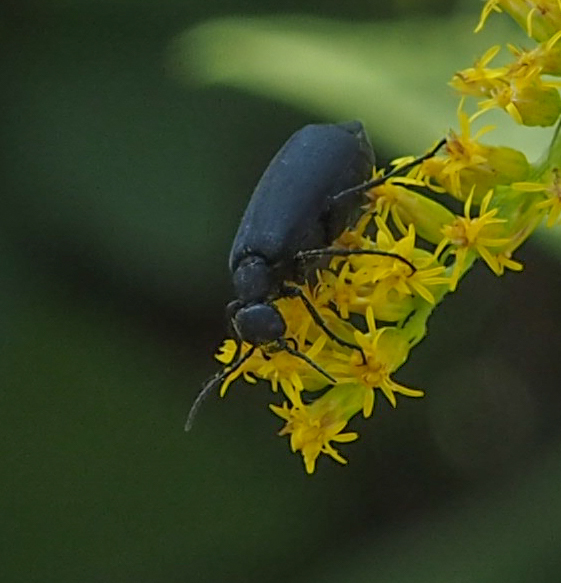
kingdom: Animalia
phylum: Arthropoda
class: Insecta
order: Coleoptera
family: Meloidae
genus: Epicauta
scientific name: Epicauta pensylvanica
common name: Black blister beetle
